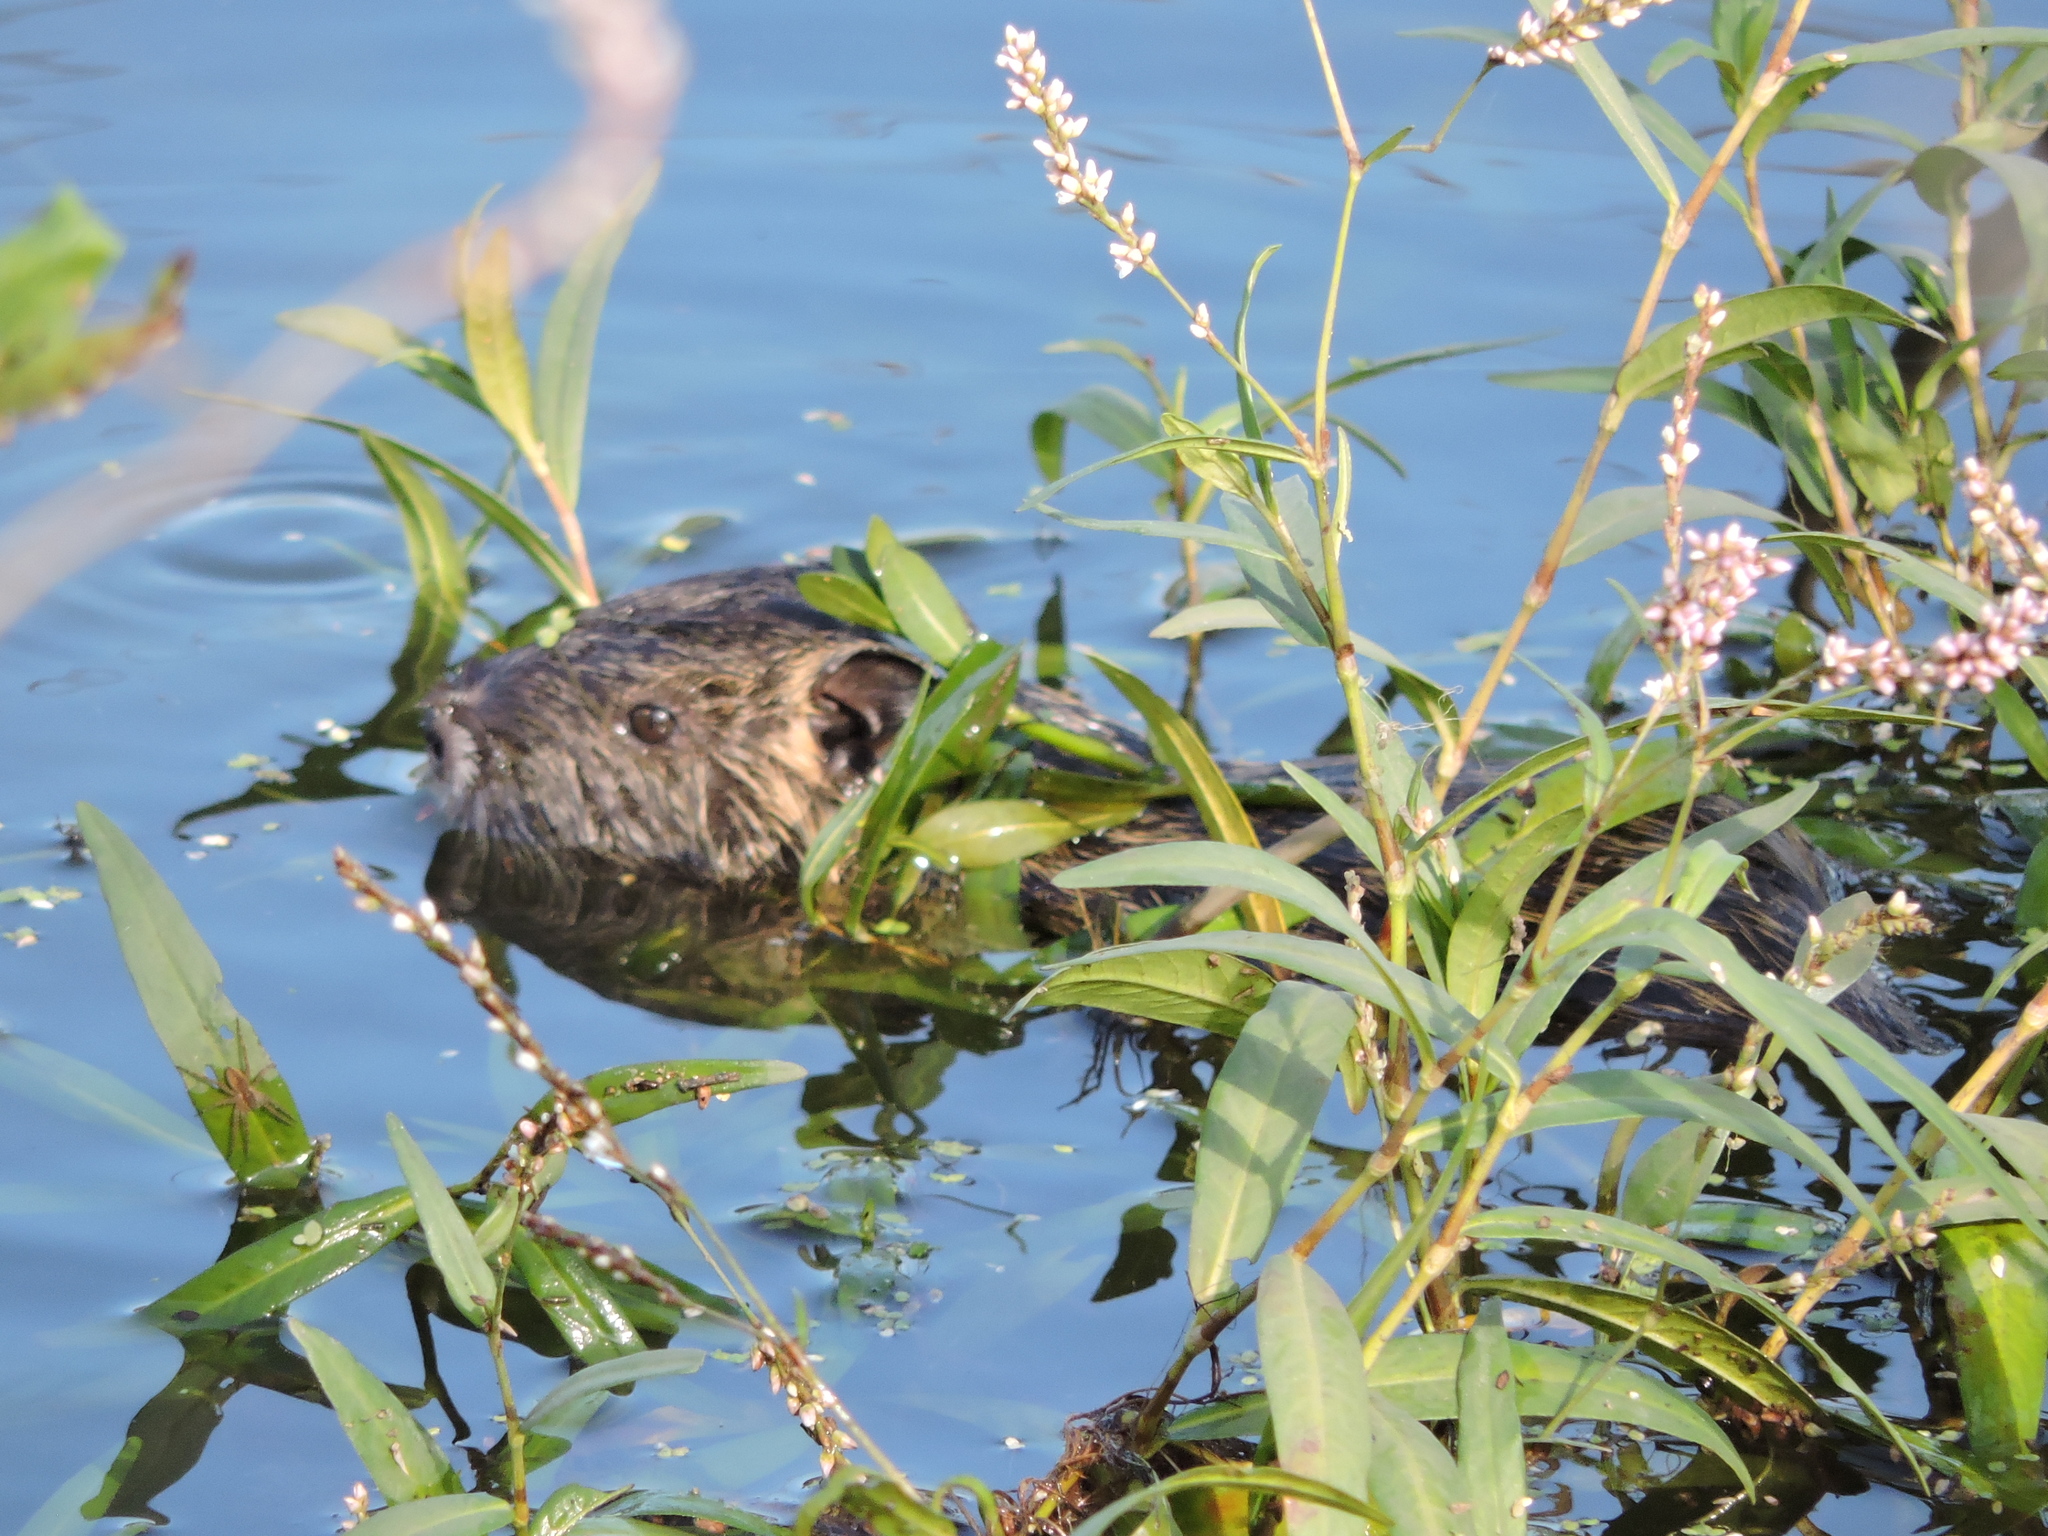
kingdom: Animalia
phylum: Chordata
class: Mammalia
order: Rodentia
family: Myocastoridae
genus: Myocastor
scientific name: Myocastor coypus
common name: Coypu
